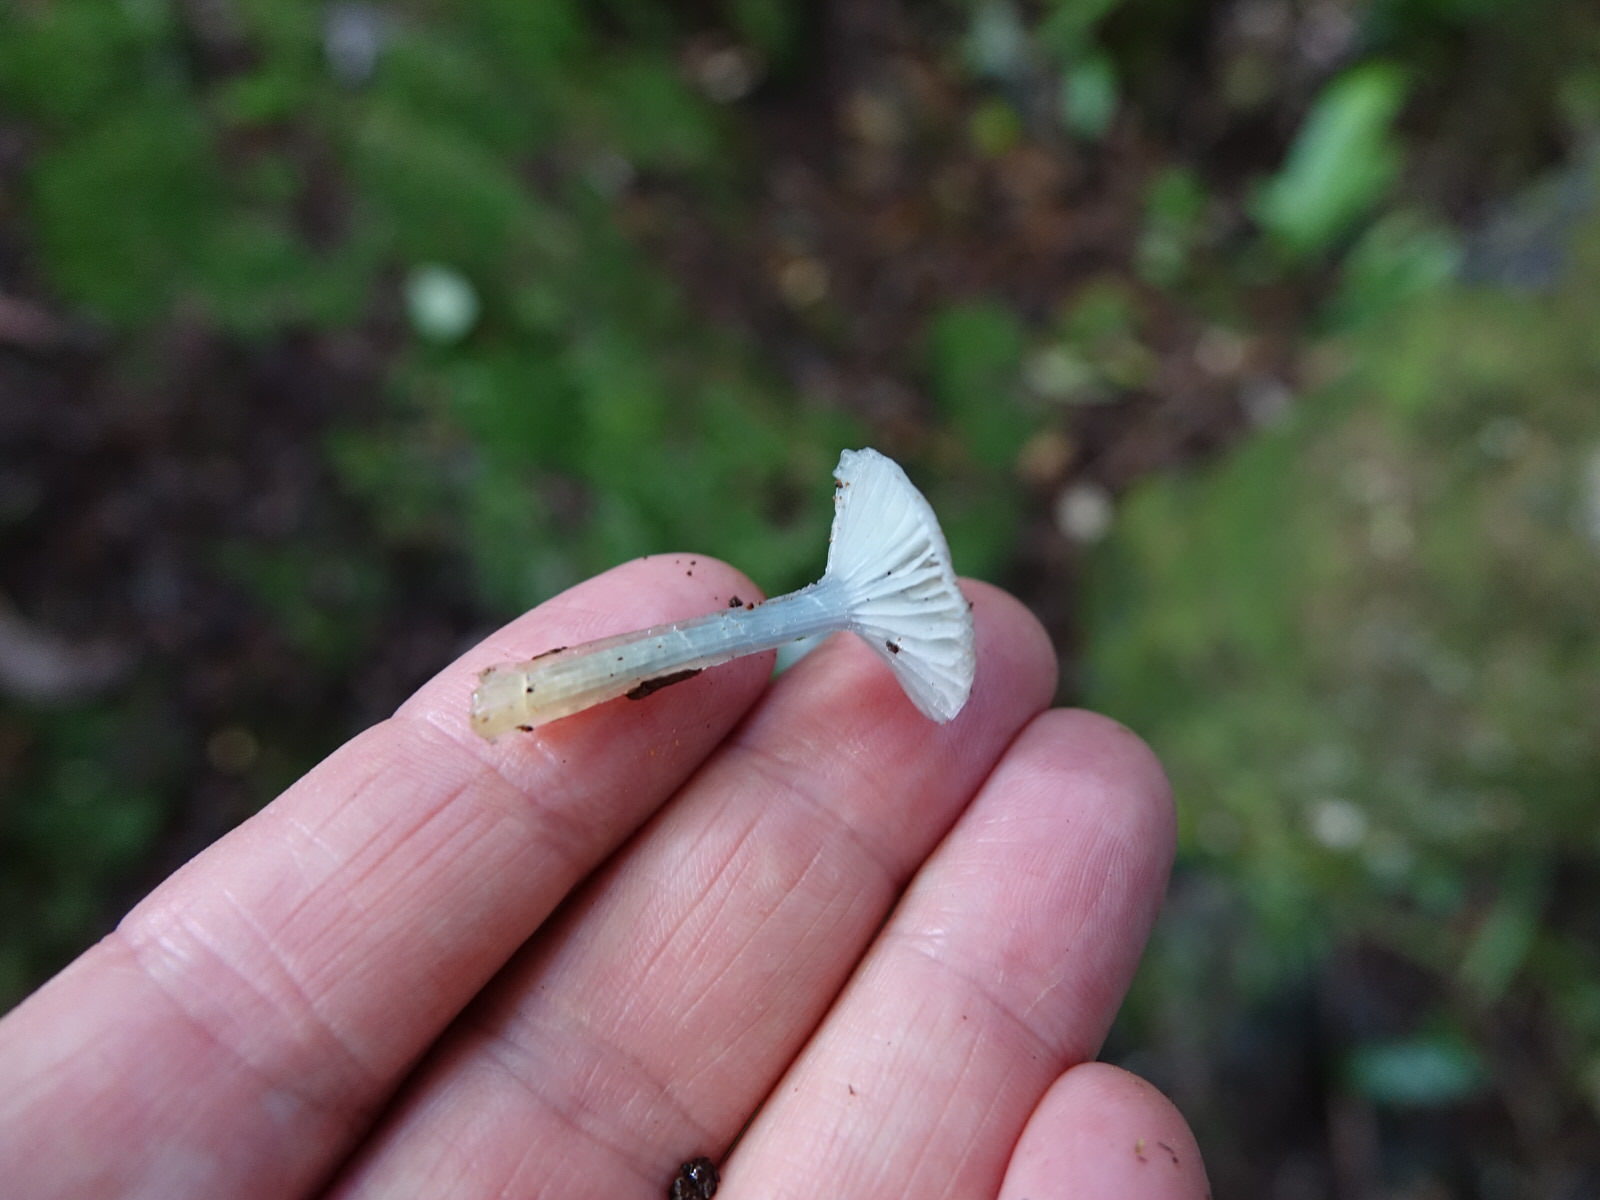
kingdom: Fungi
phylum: Basidiomycota
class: Agaricomycetes
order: Agaricales
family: Hygrophoraceae
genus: Gliophorus
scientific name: Gliophorus lilacipes
